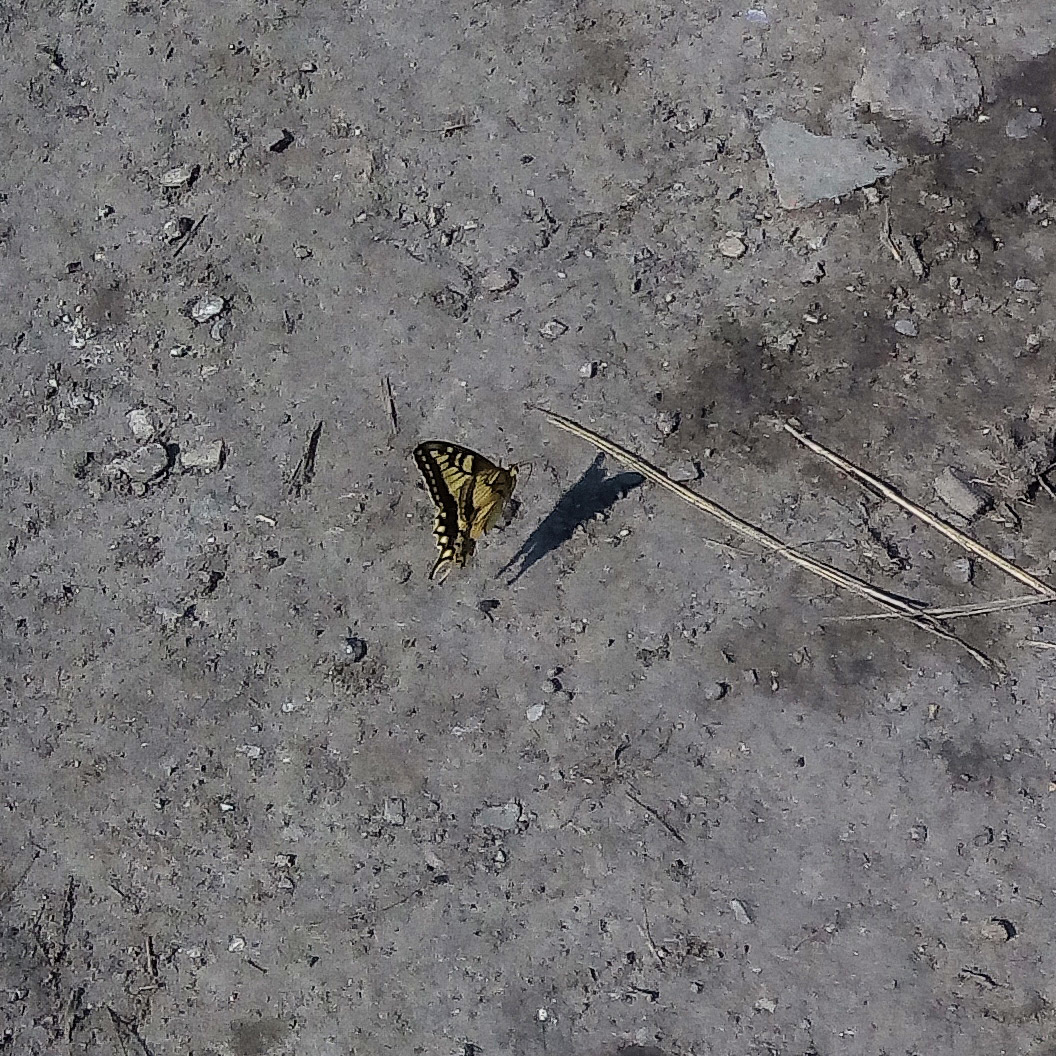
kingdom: Animalia
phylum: Arthropoda
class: Insecta
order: Lepidoptera
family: Papilionidae
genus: Papilio
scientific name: Papilio machaon
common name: Swallowtail
